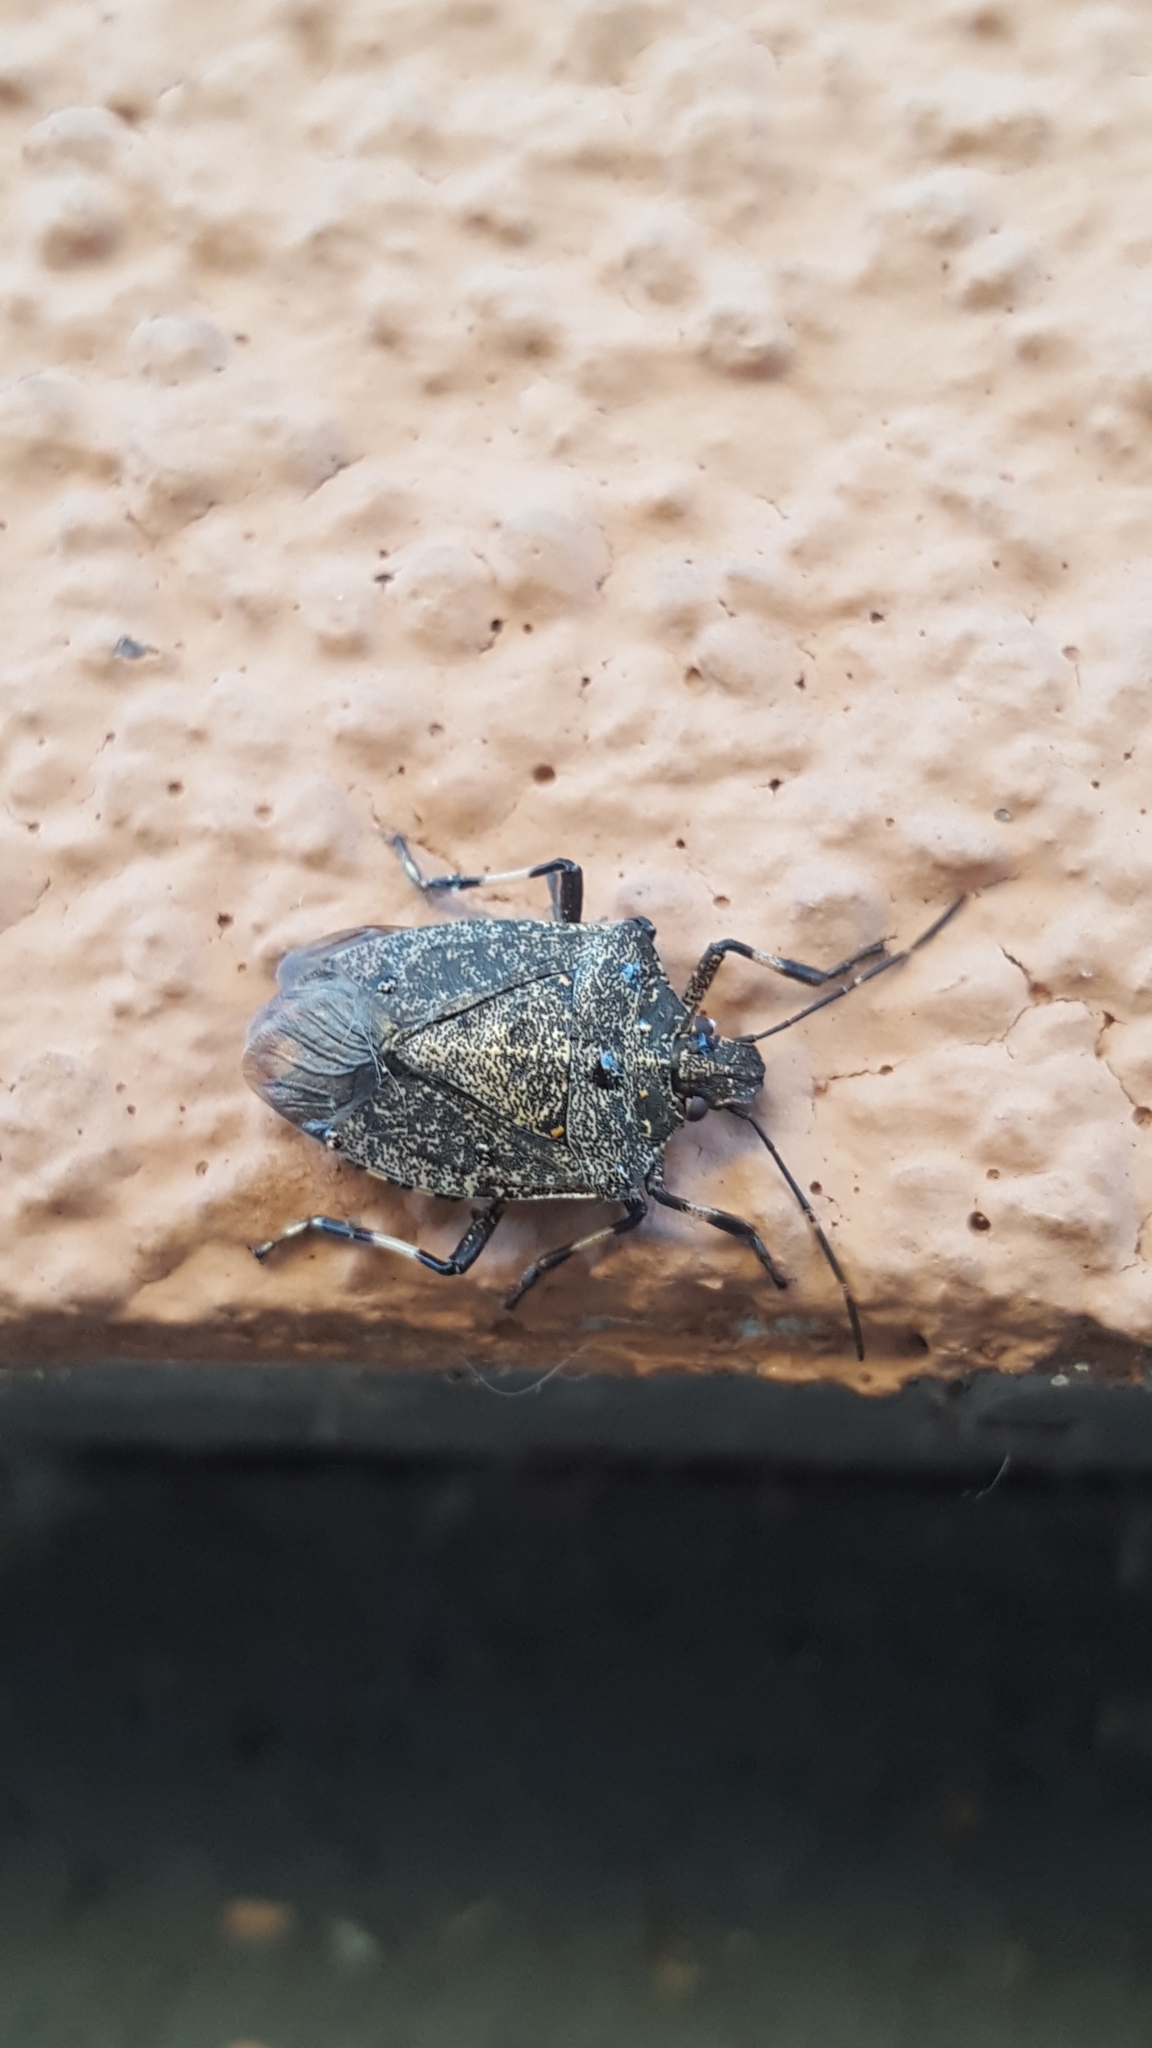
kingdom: Animalia
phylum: Arthropoda
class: Insecta
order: Hemiptera
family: Pentatomidae
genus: Halyomorpha
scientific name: Halyomorpha halys
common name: Brown marmorated stink bug
